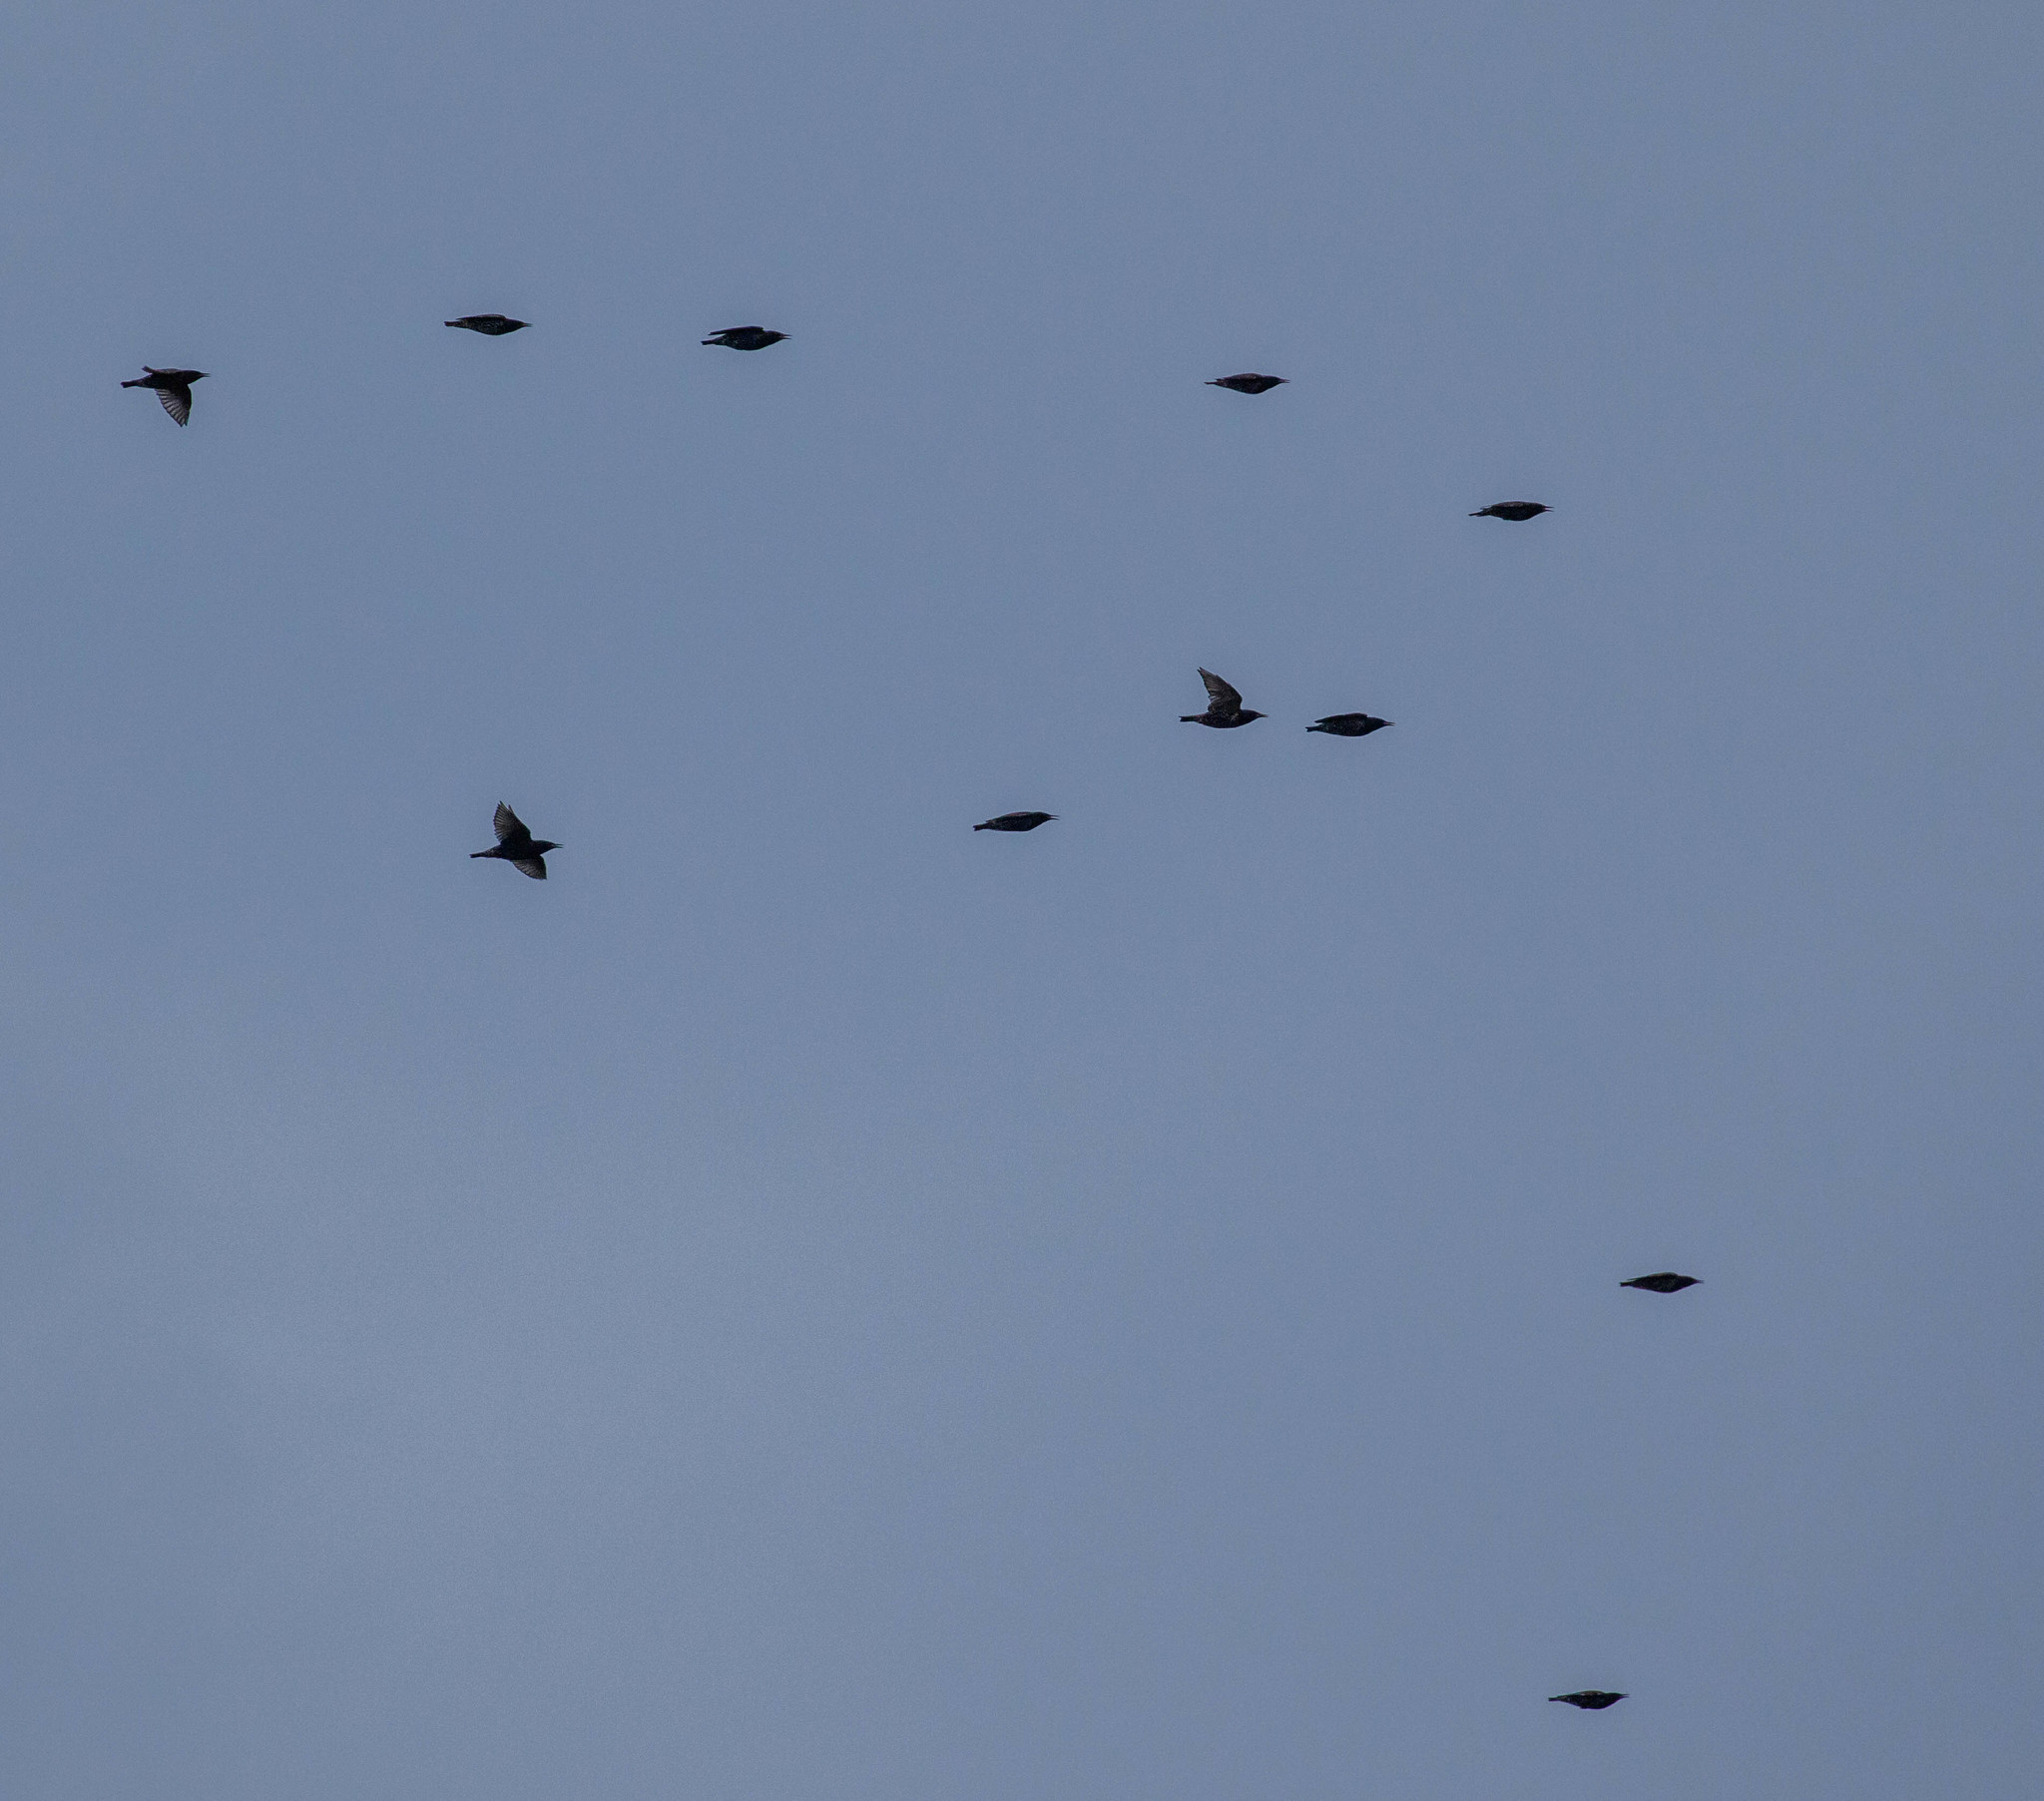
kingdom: Animalia
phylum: Chordata
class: Aves
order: Passeriformes
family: Sturnidae
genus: Sturnus
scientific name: Sturnus vulgaris
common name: Common starling
